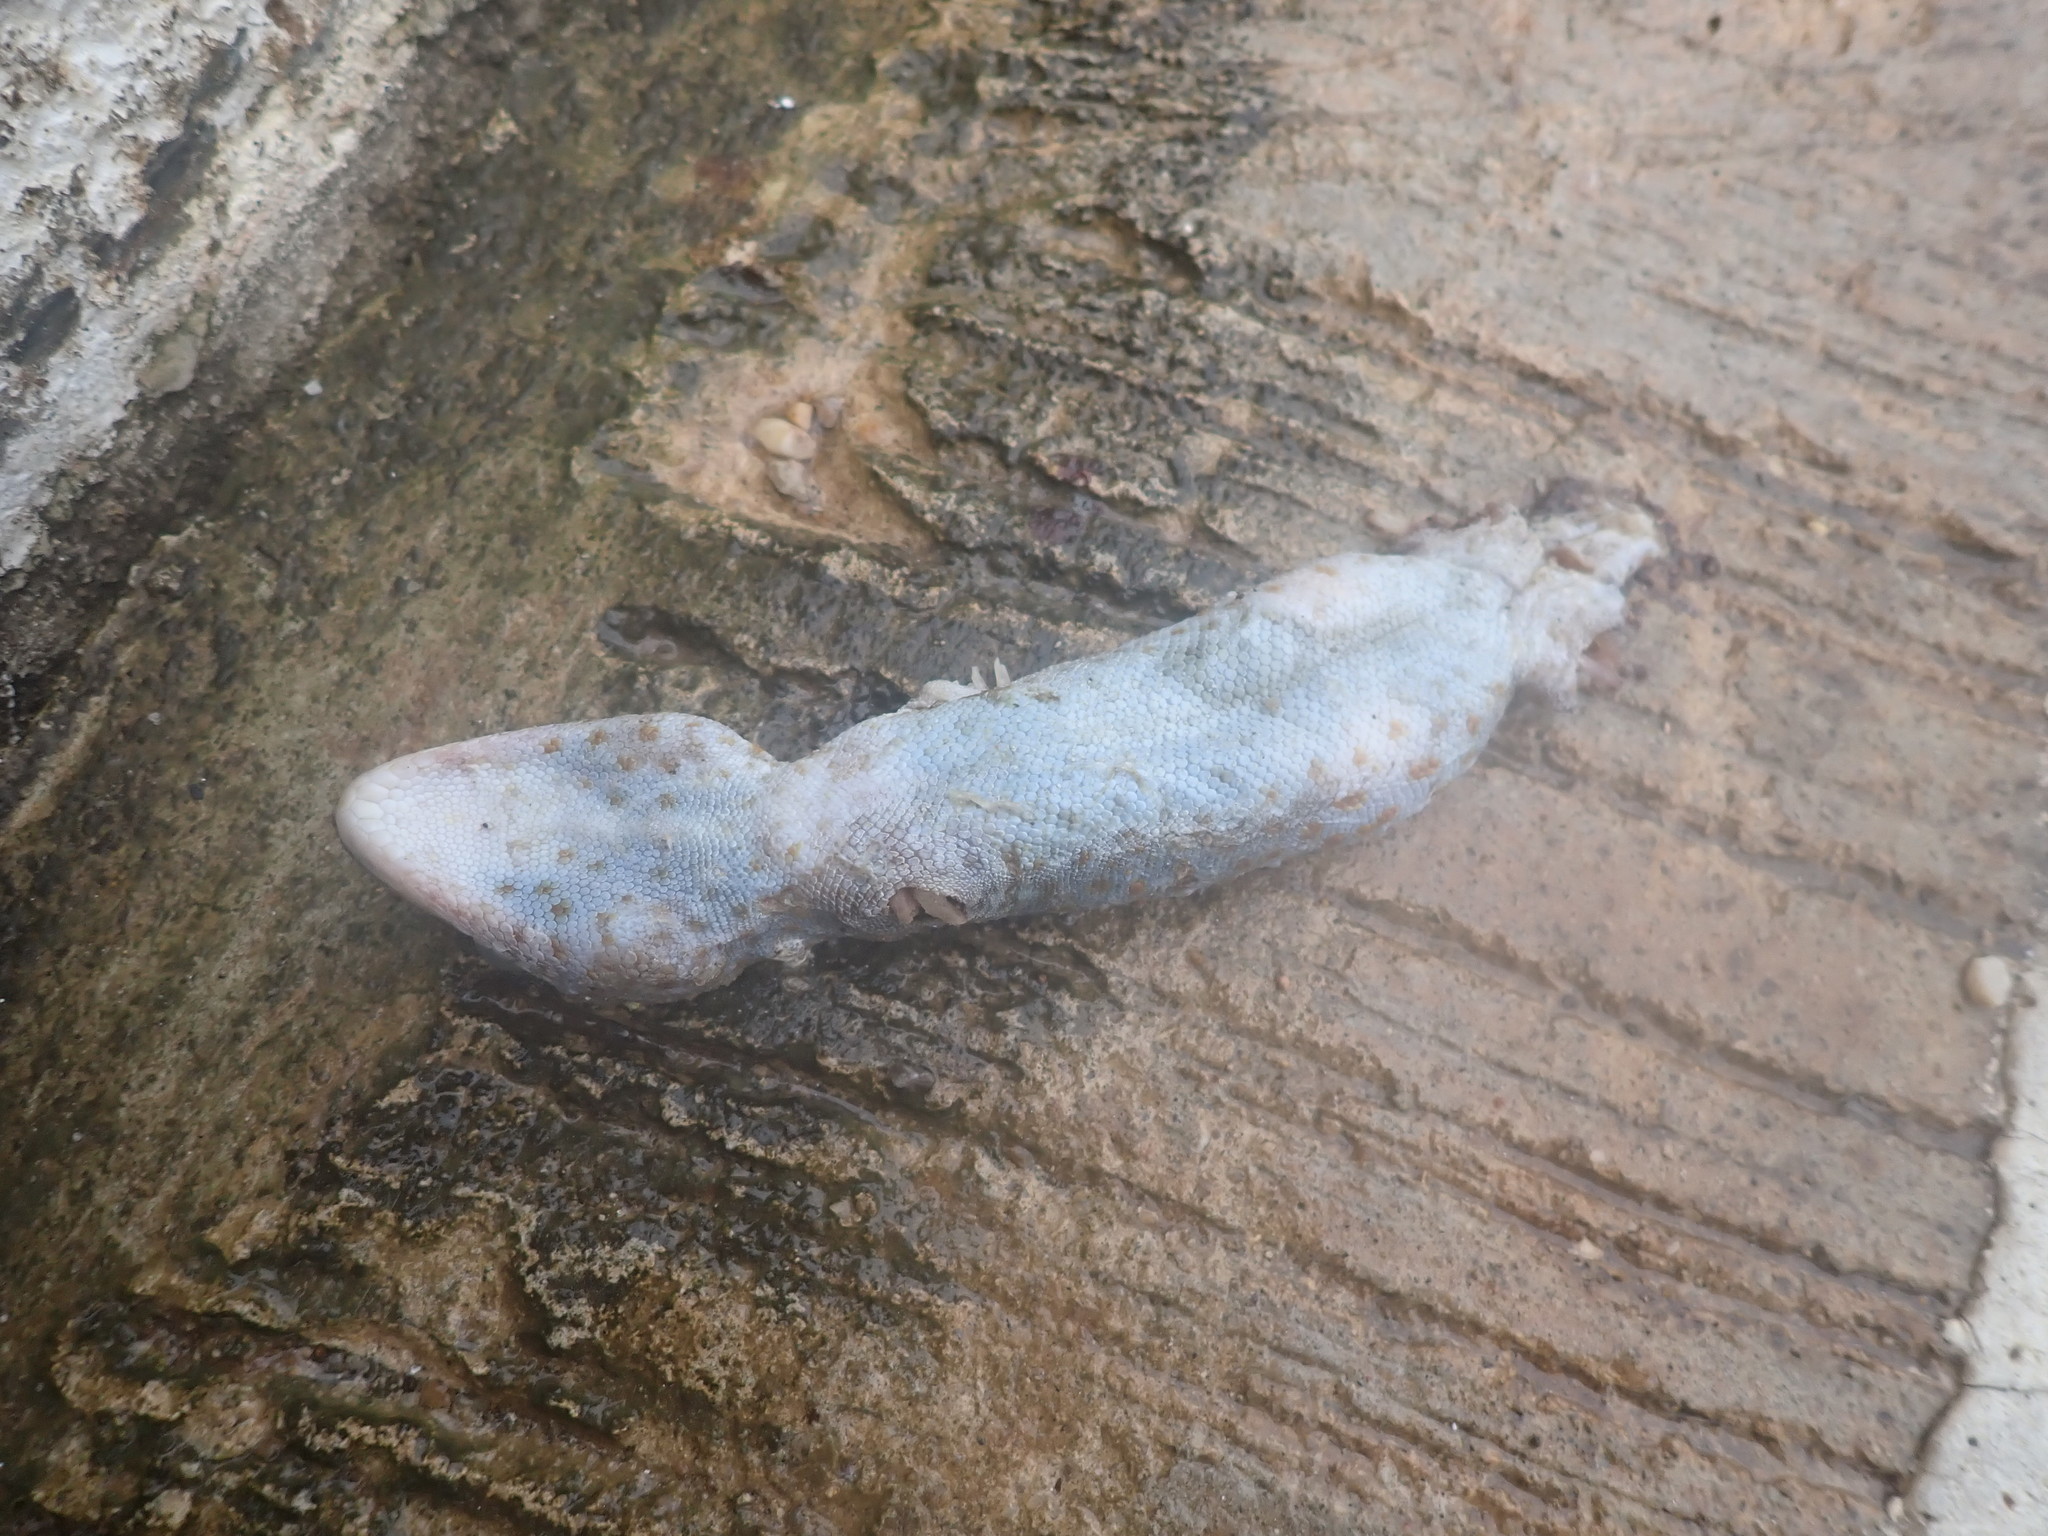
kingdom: Animalia
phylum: Chordata
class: Squamata
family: Gekkonidae
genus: Gekko
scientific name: Gekko gecko
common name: Tokay gecko
